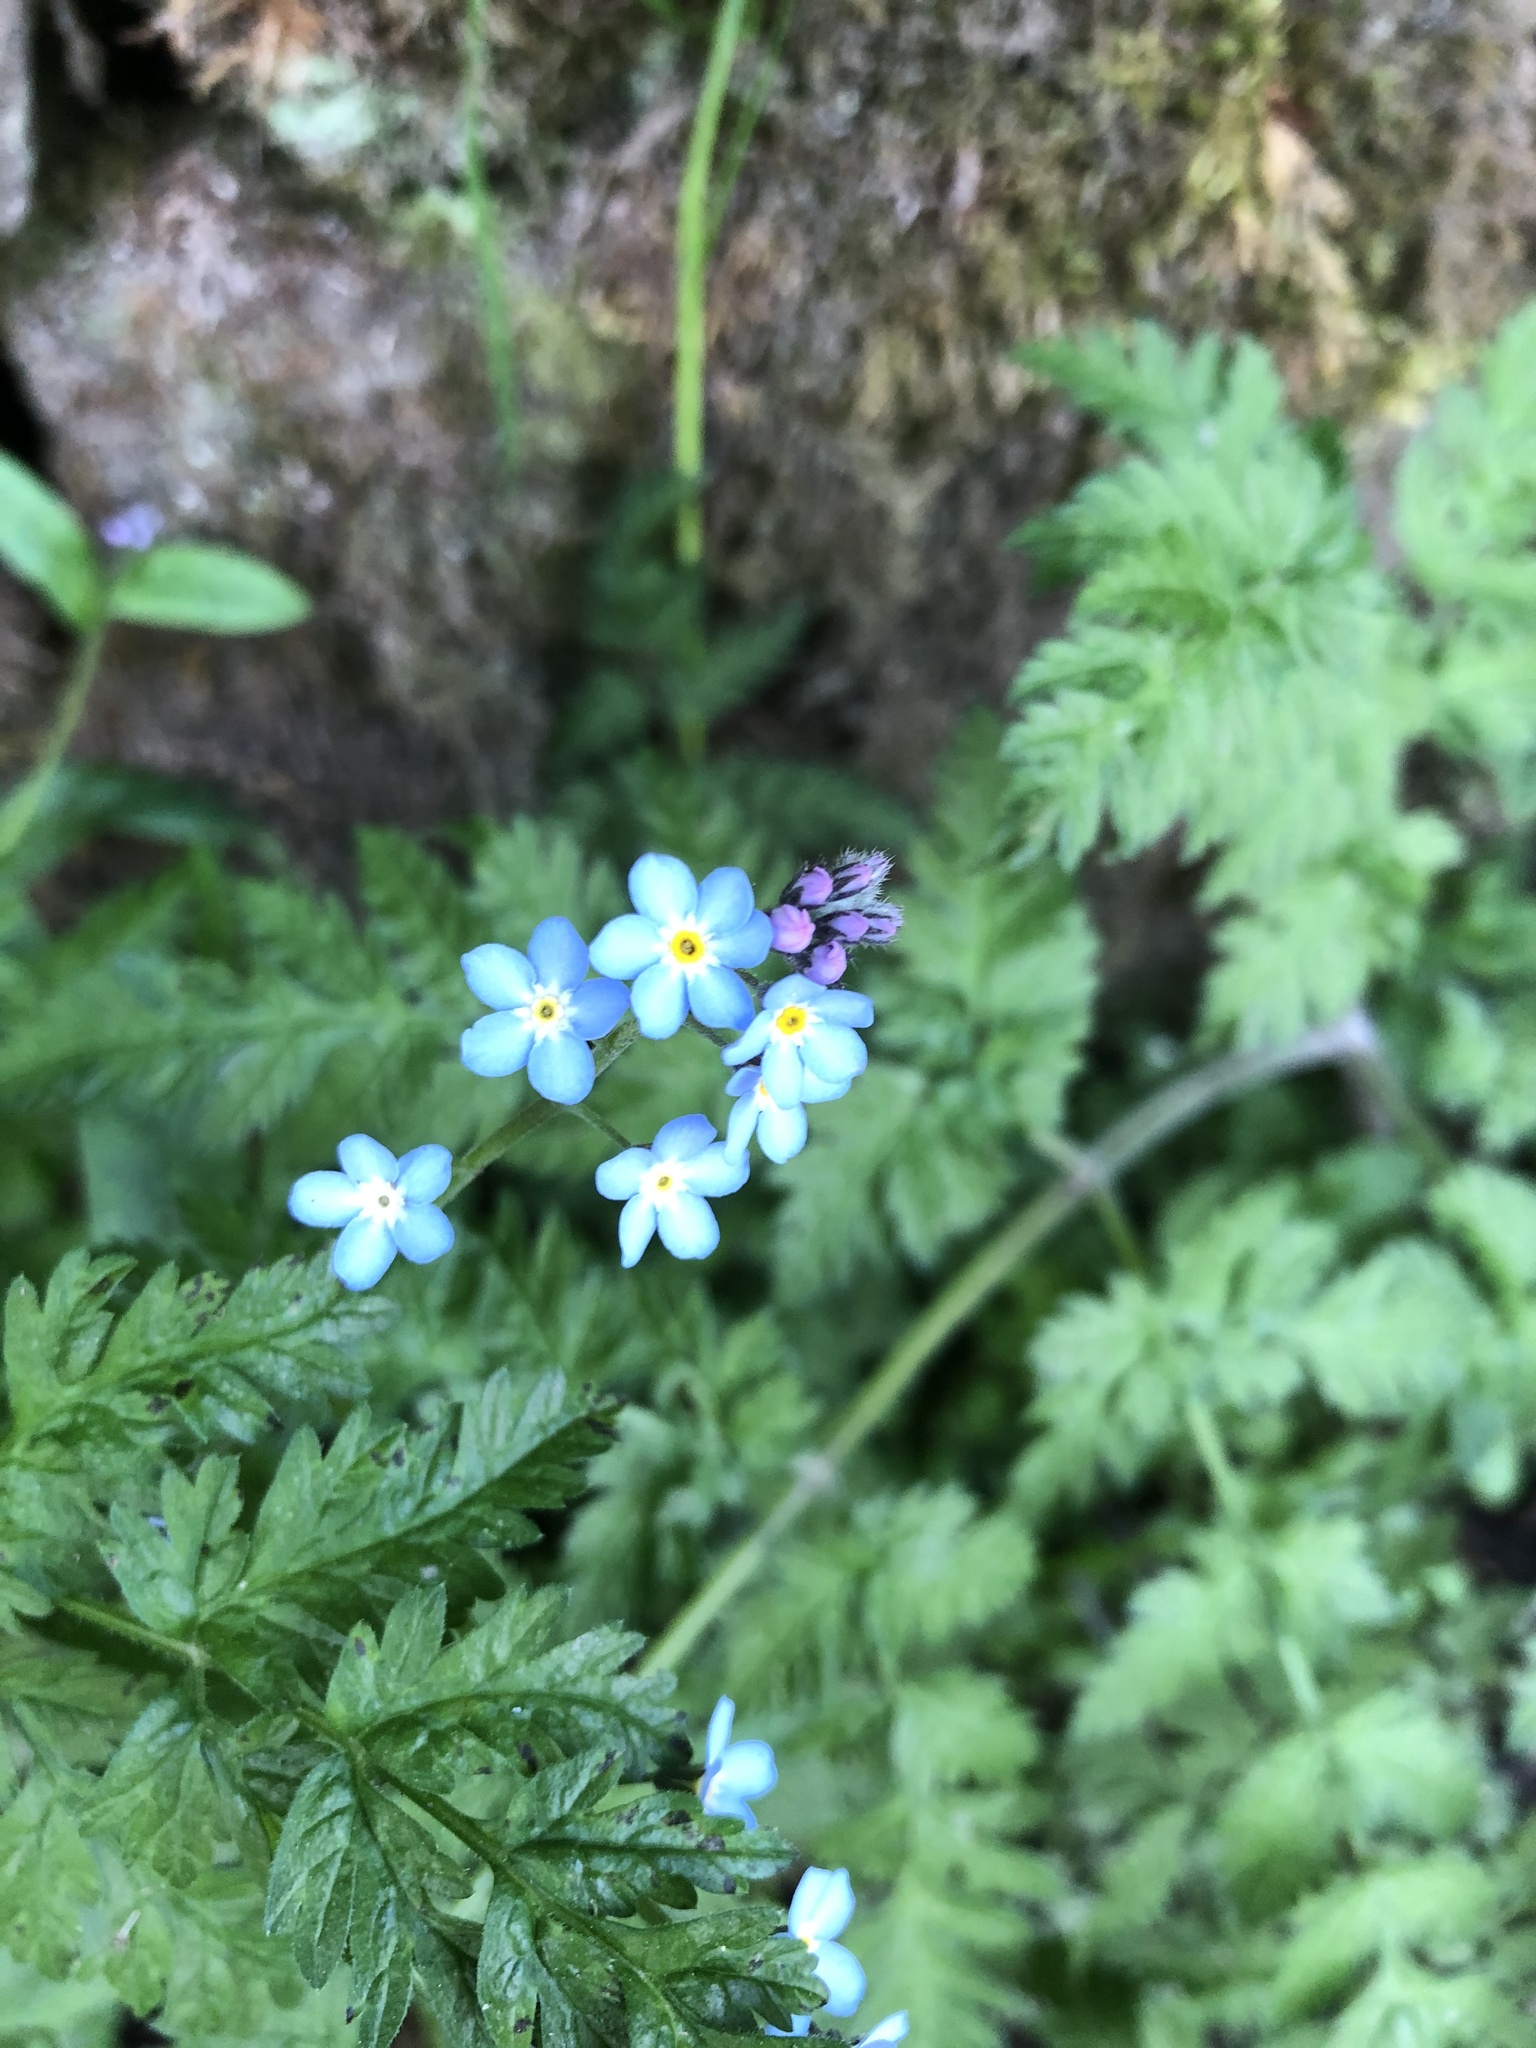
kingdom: Plantae
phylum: Tracheophyta
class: Magnoliopsida
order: Boraginales
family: Boraginaceae
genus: Myosotis
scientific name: Myosotis sylvatica
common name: Wood forget-me-not
